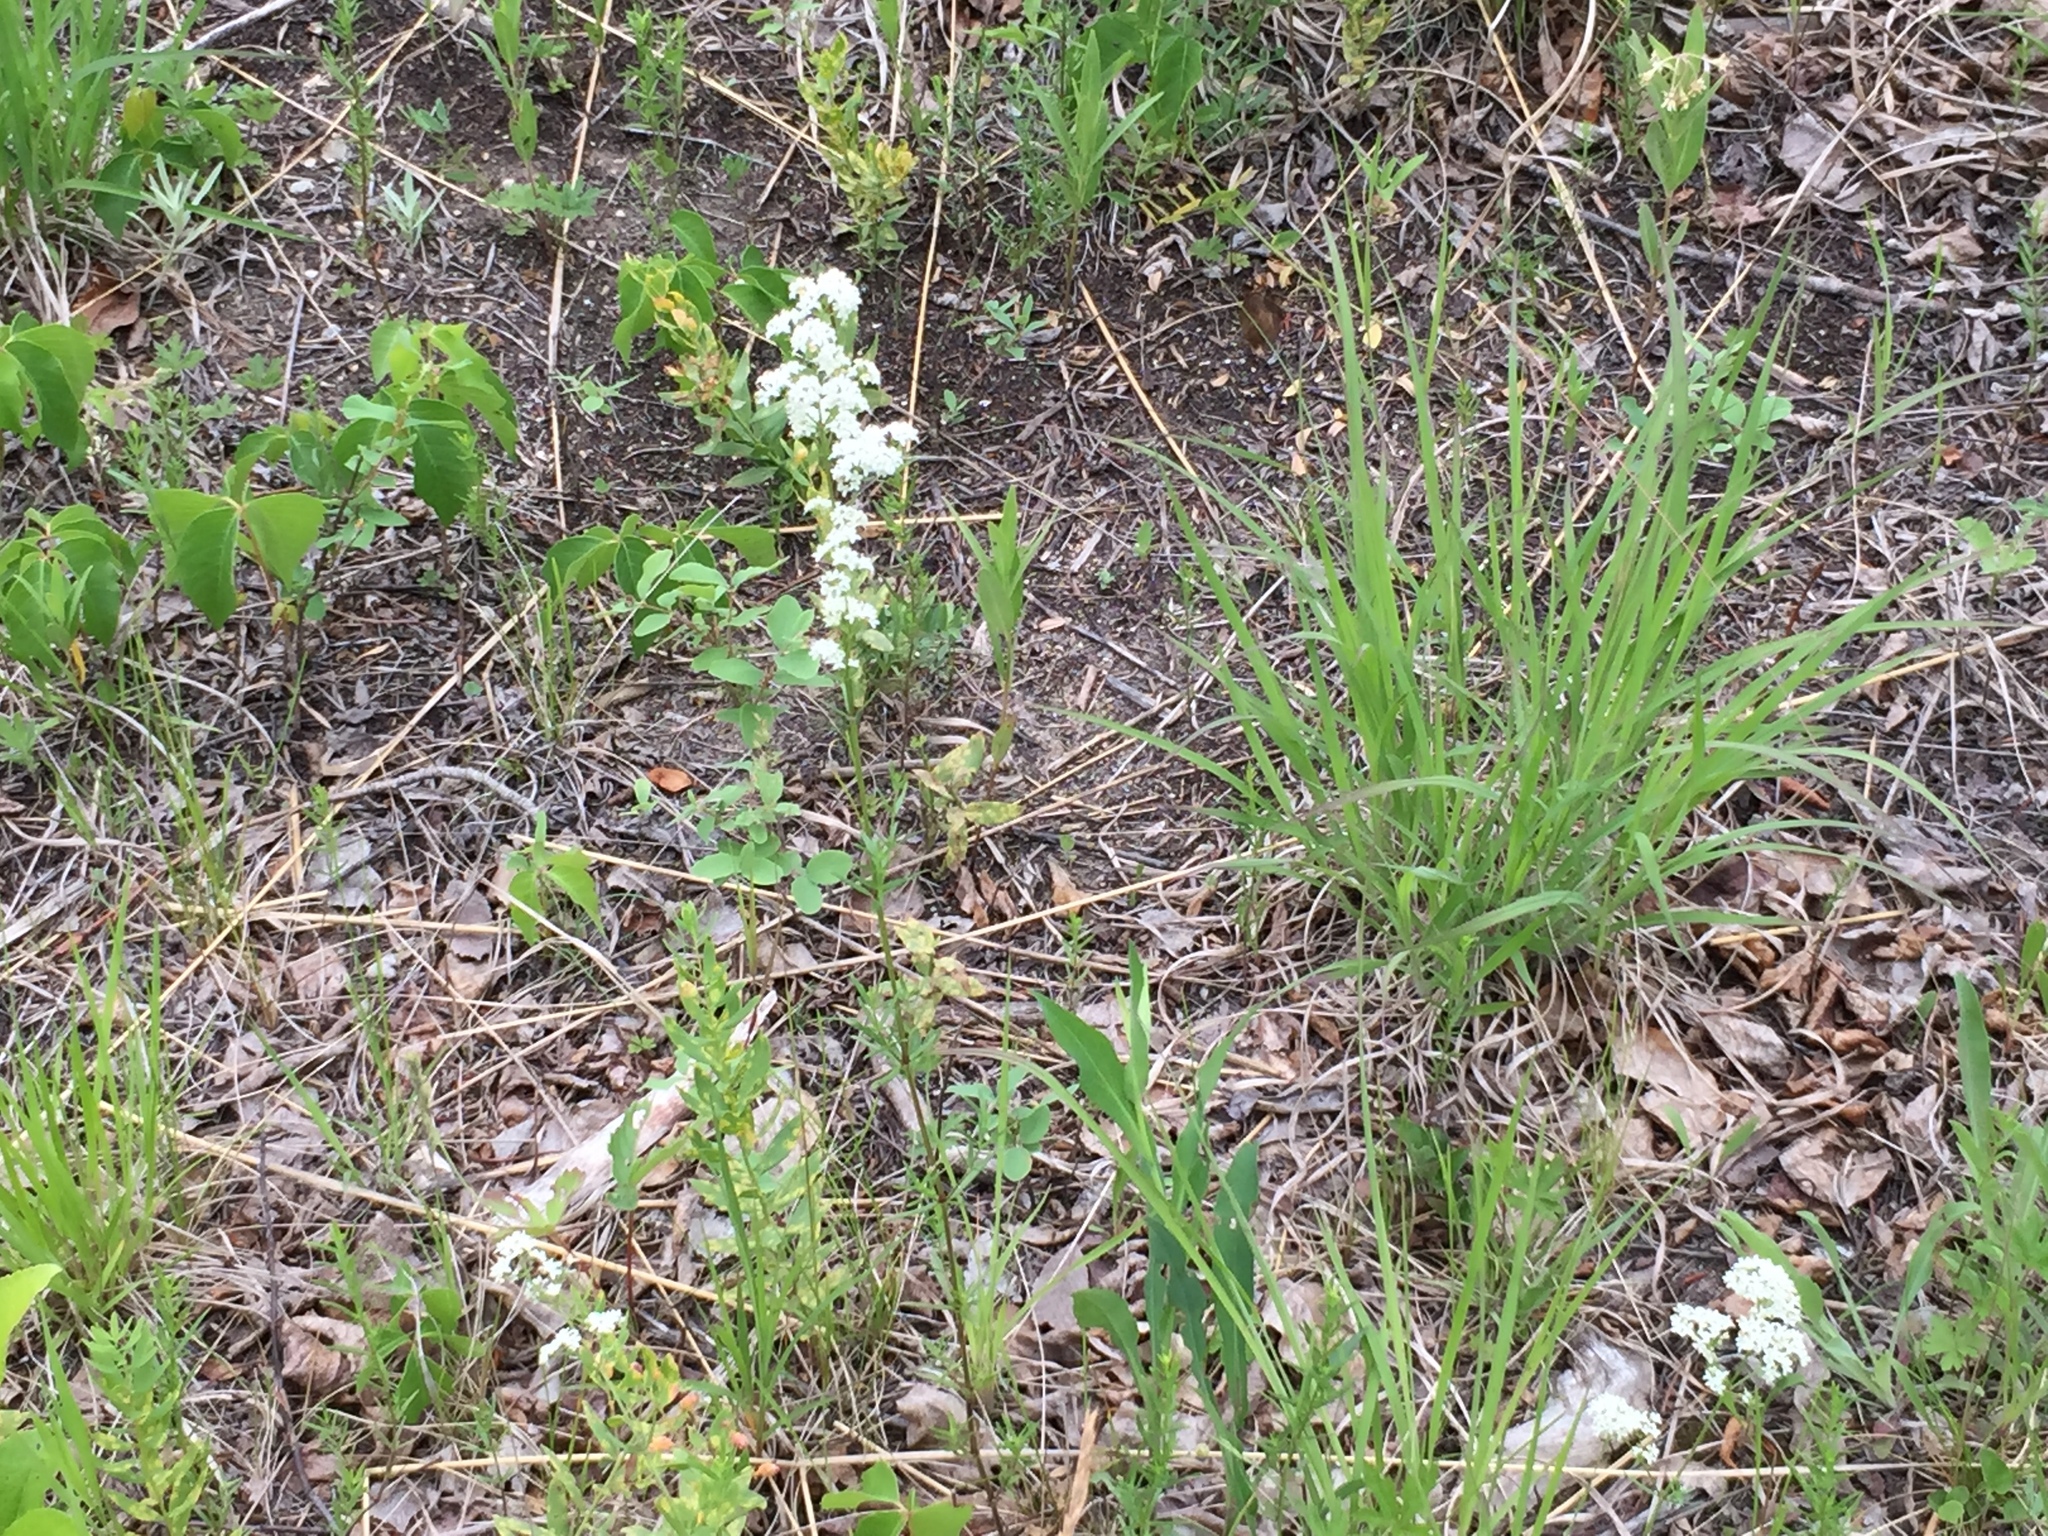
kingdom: Plantae
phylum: Tracheophyta
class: Magnoliopsida
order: Gentianales
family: Rubiaceae
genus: Galium
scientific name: Galium boreale
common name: Northern bedstraw
